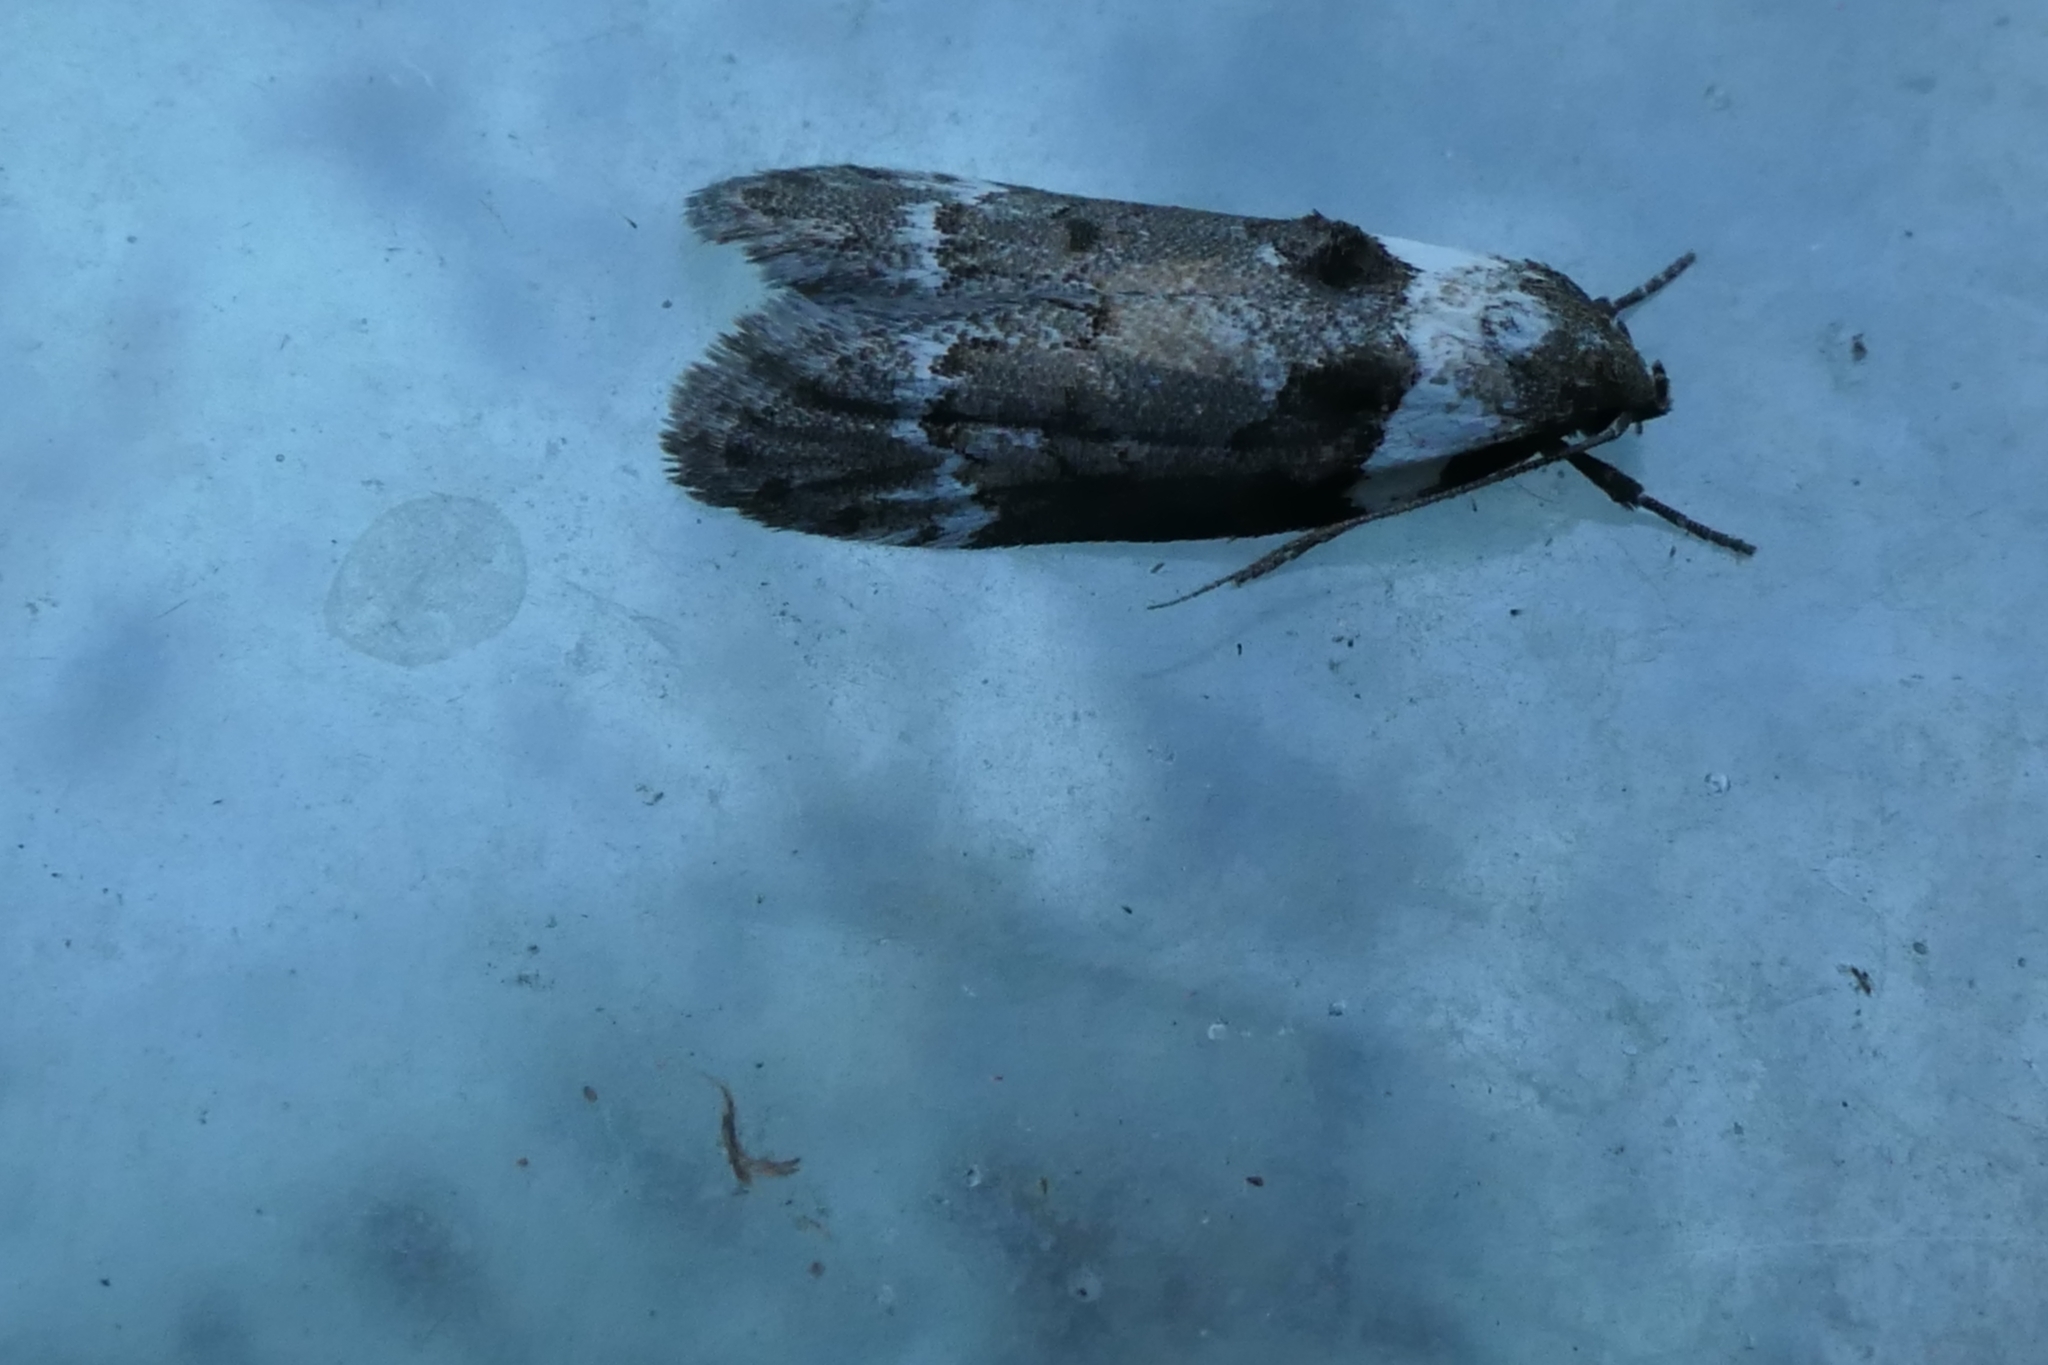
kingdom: Animalia
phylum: Arthropoda
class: Insecta
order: Lepidoptera
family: Oecophoridae
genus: Trachypepla
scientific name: Trachypepla conspicuella
